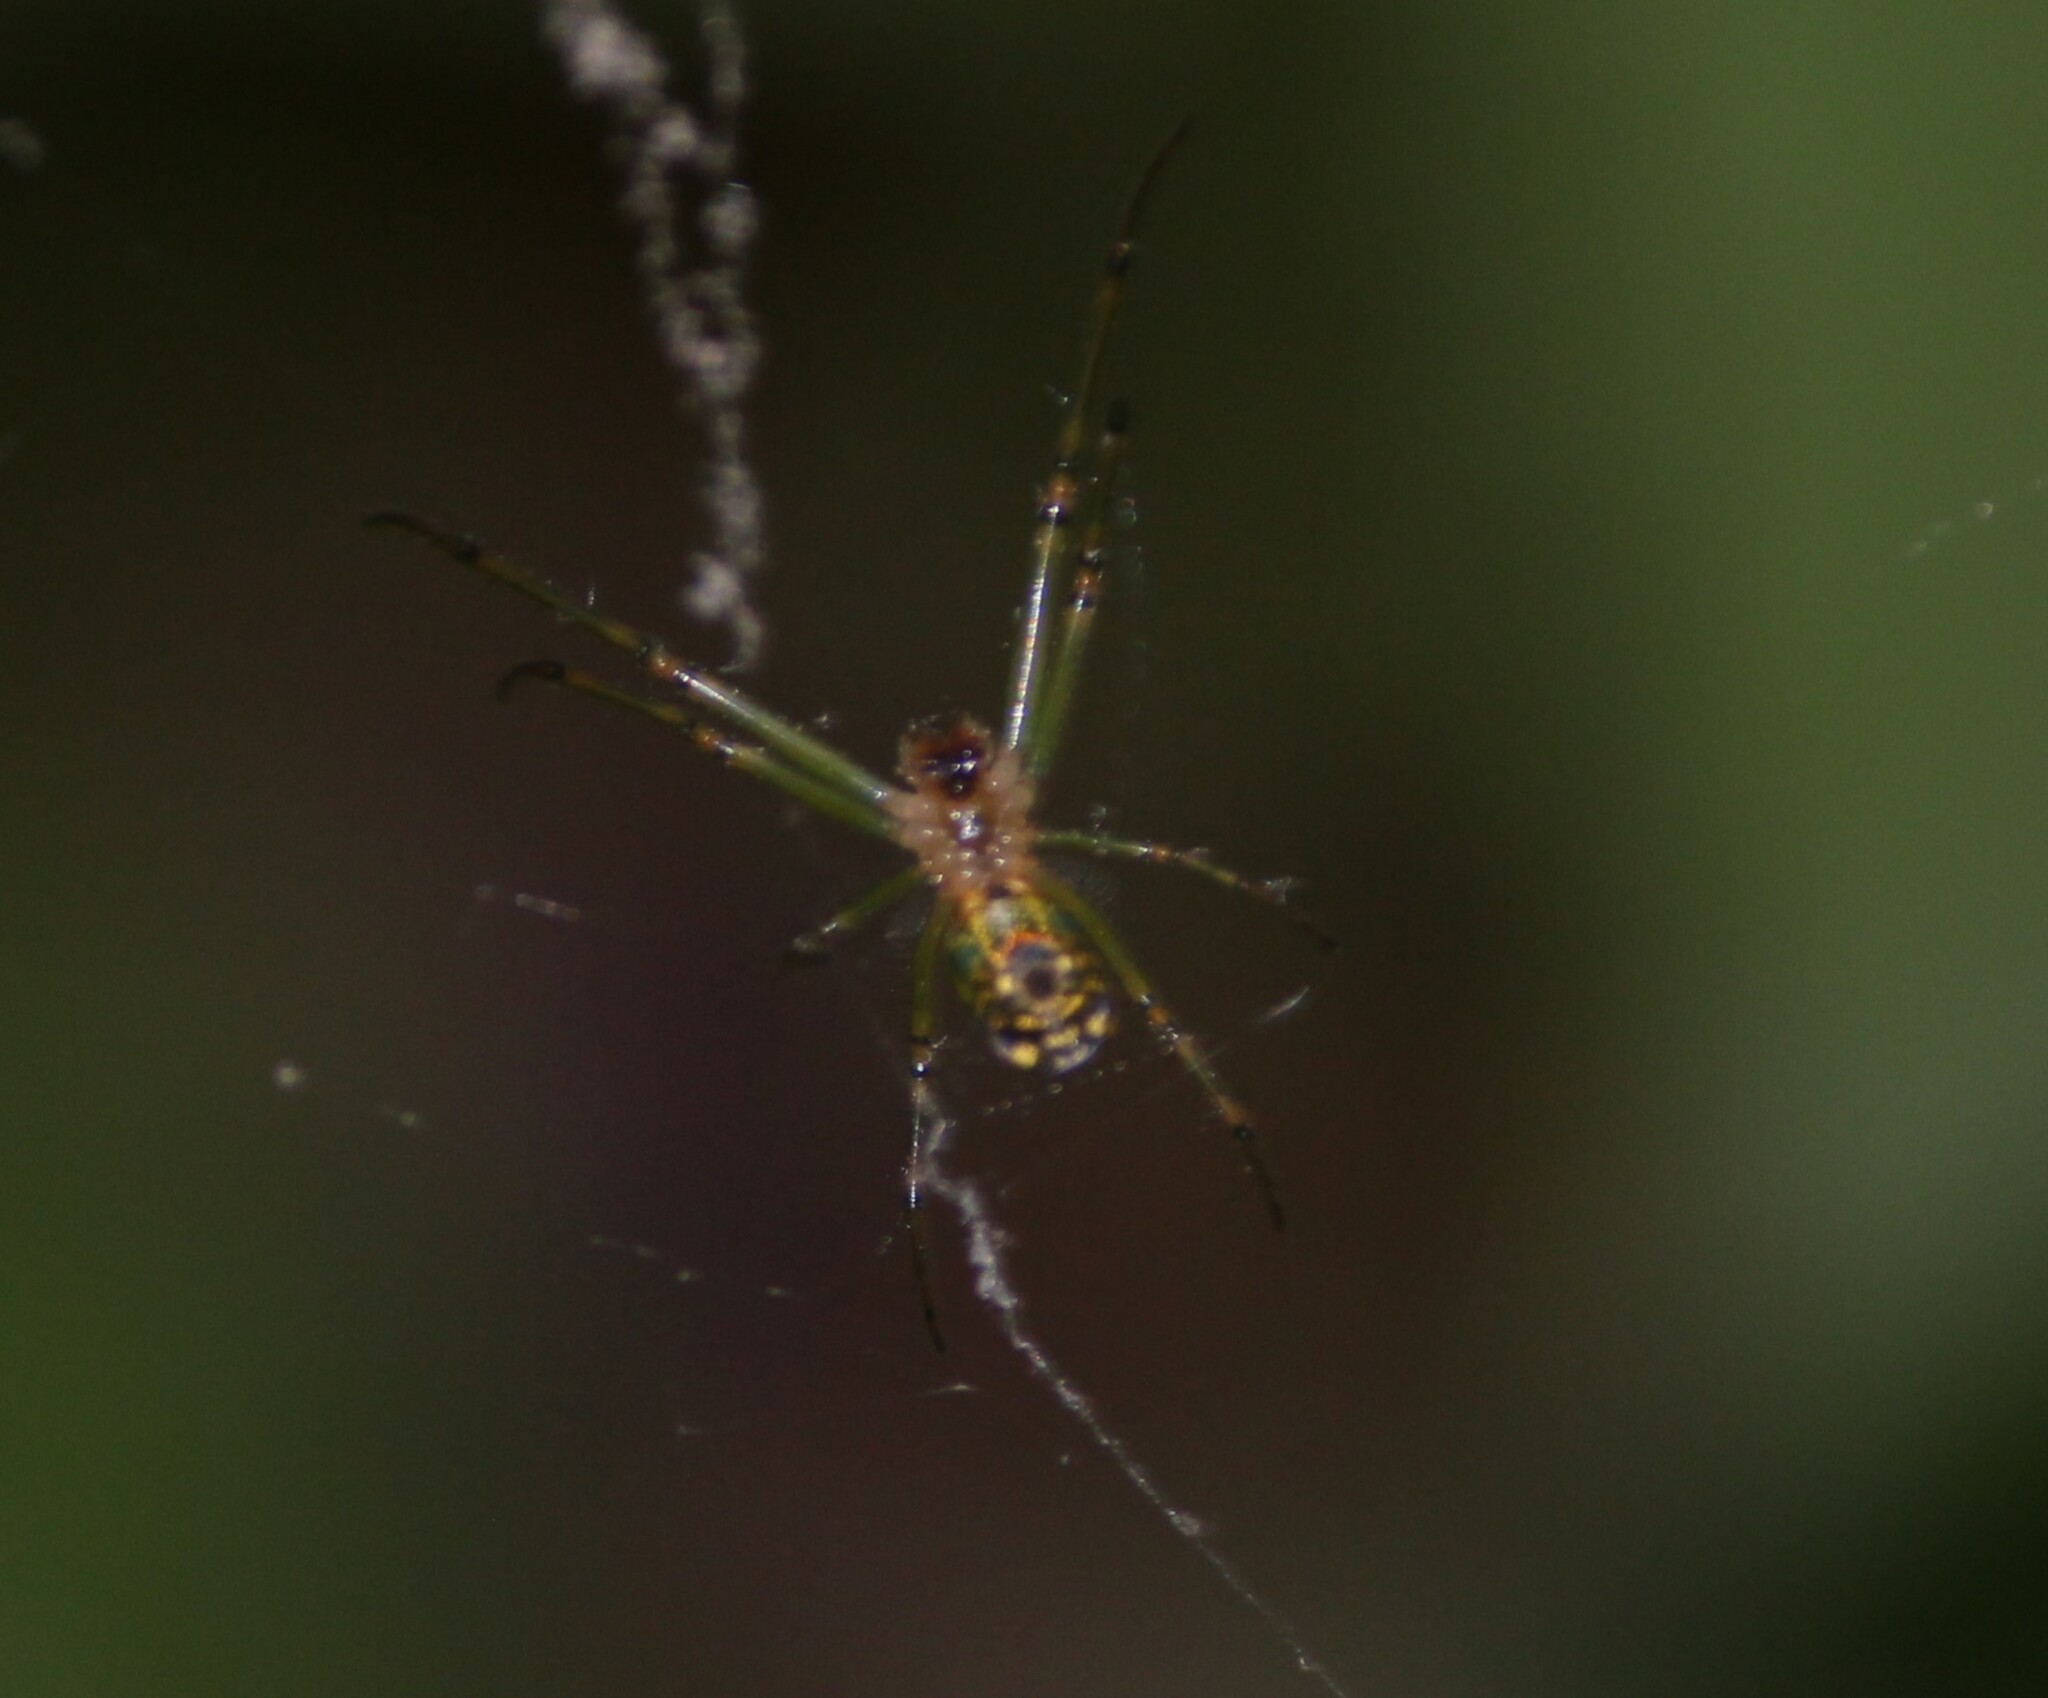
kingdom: Animalia
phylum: Arthropoda
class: Arachnida
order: Araneae
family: Tetragnathidae
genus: Leucauge
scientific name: Leucauge venusta
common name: Longjawed orb weavers
